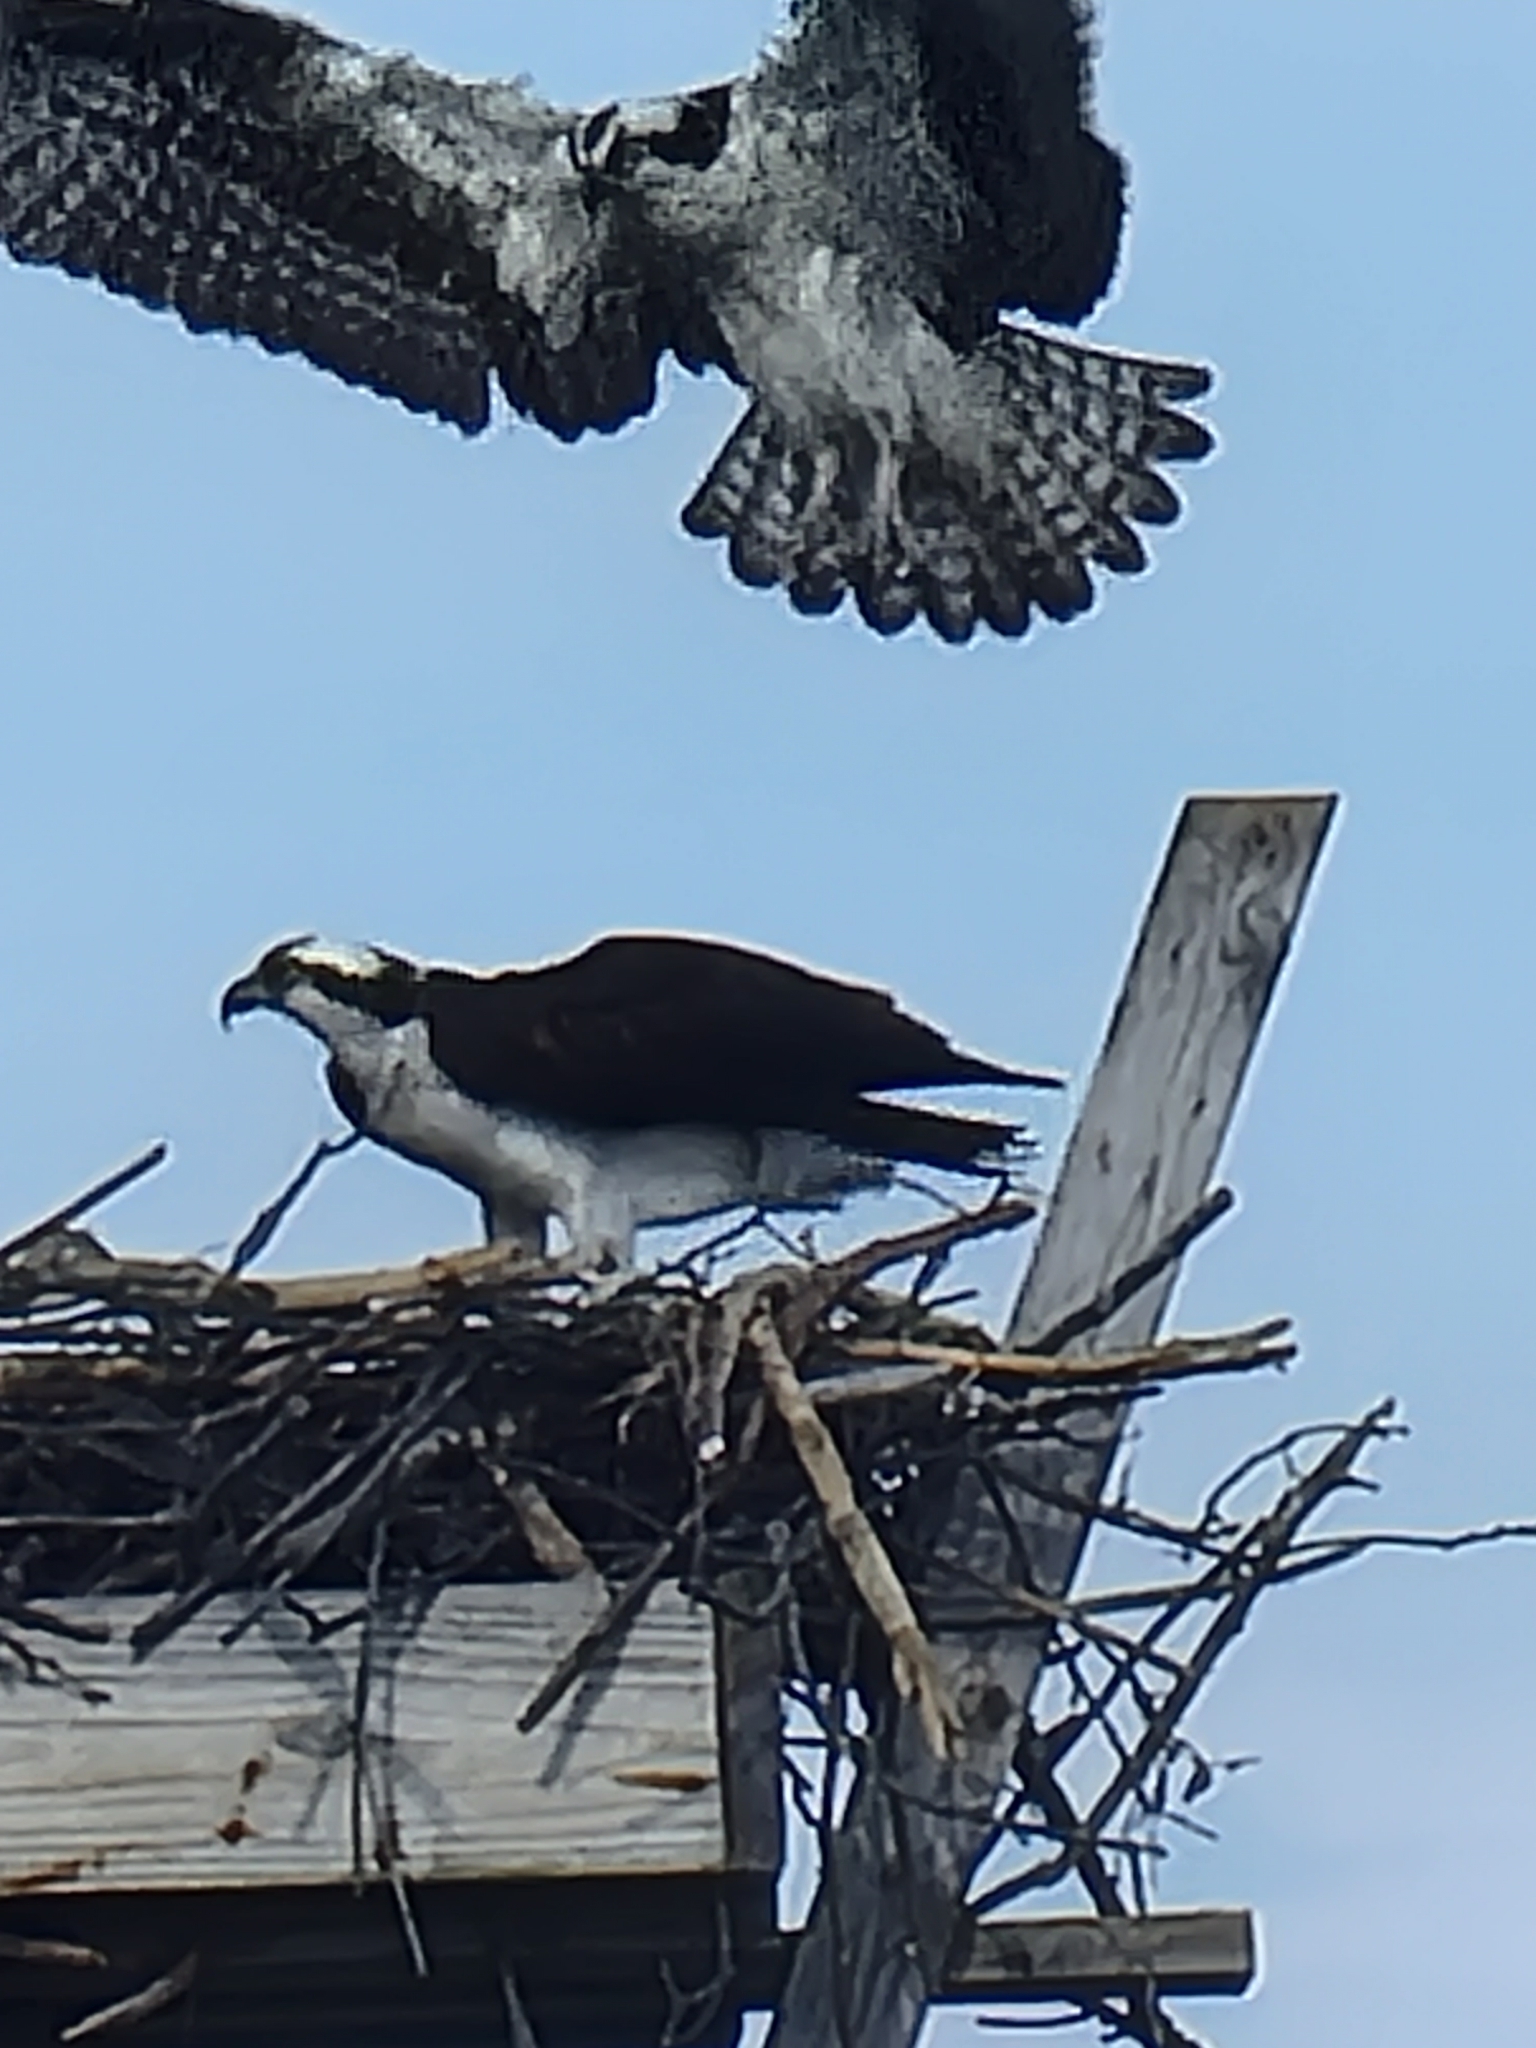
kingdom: Animalia
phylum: Chordata
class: Aves
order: Accipitriformes
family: Pandionidae
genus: Pandion
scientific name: Pandion haliaetus
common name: Osprey
